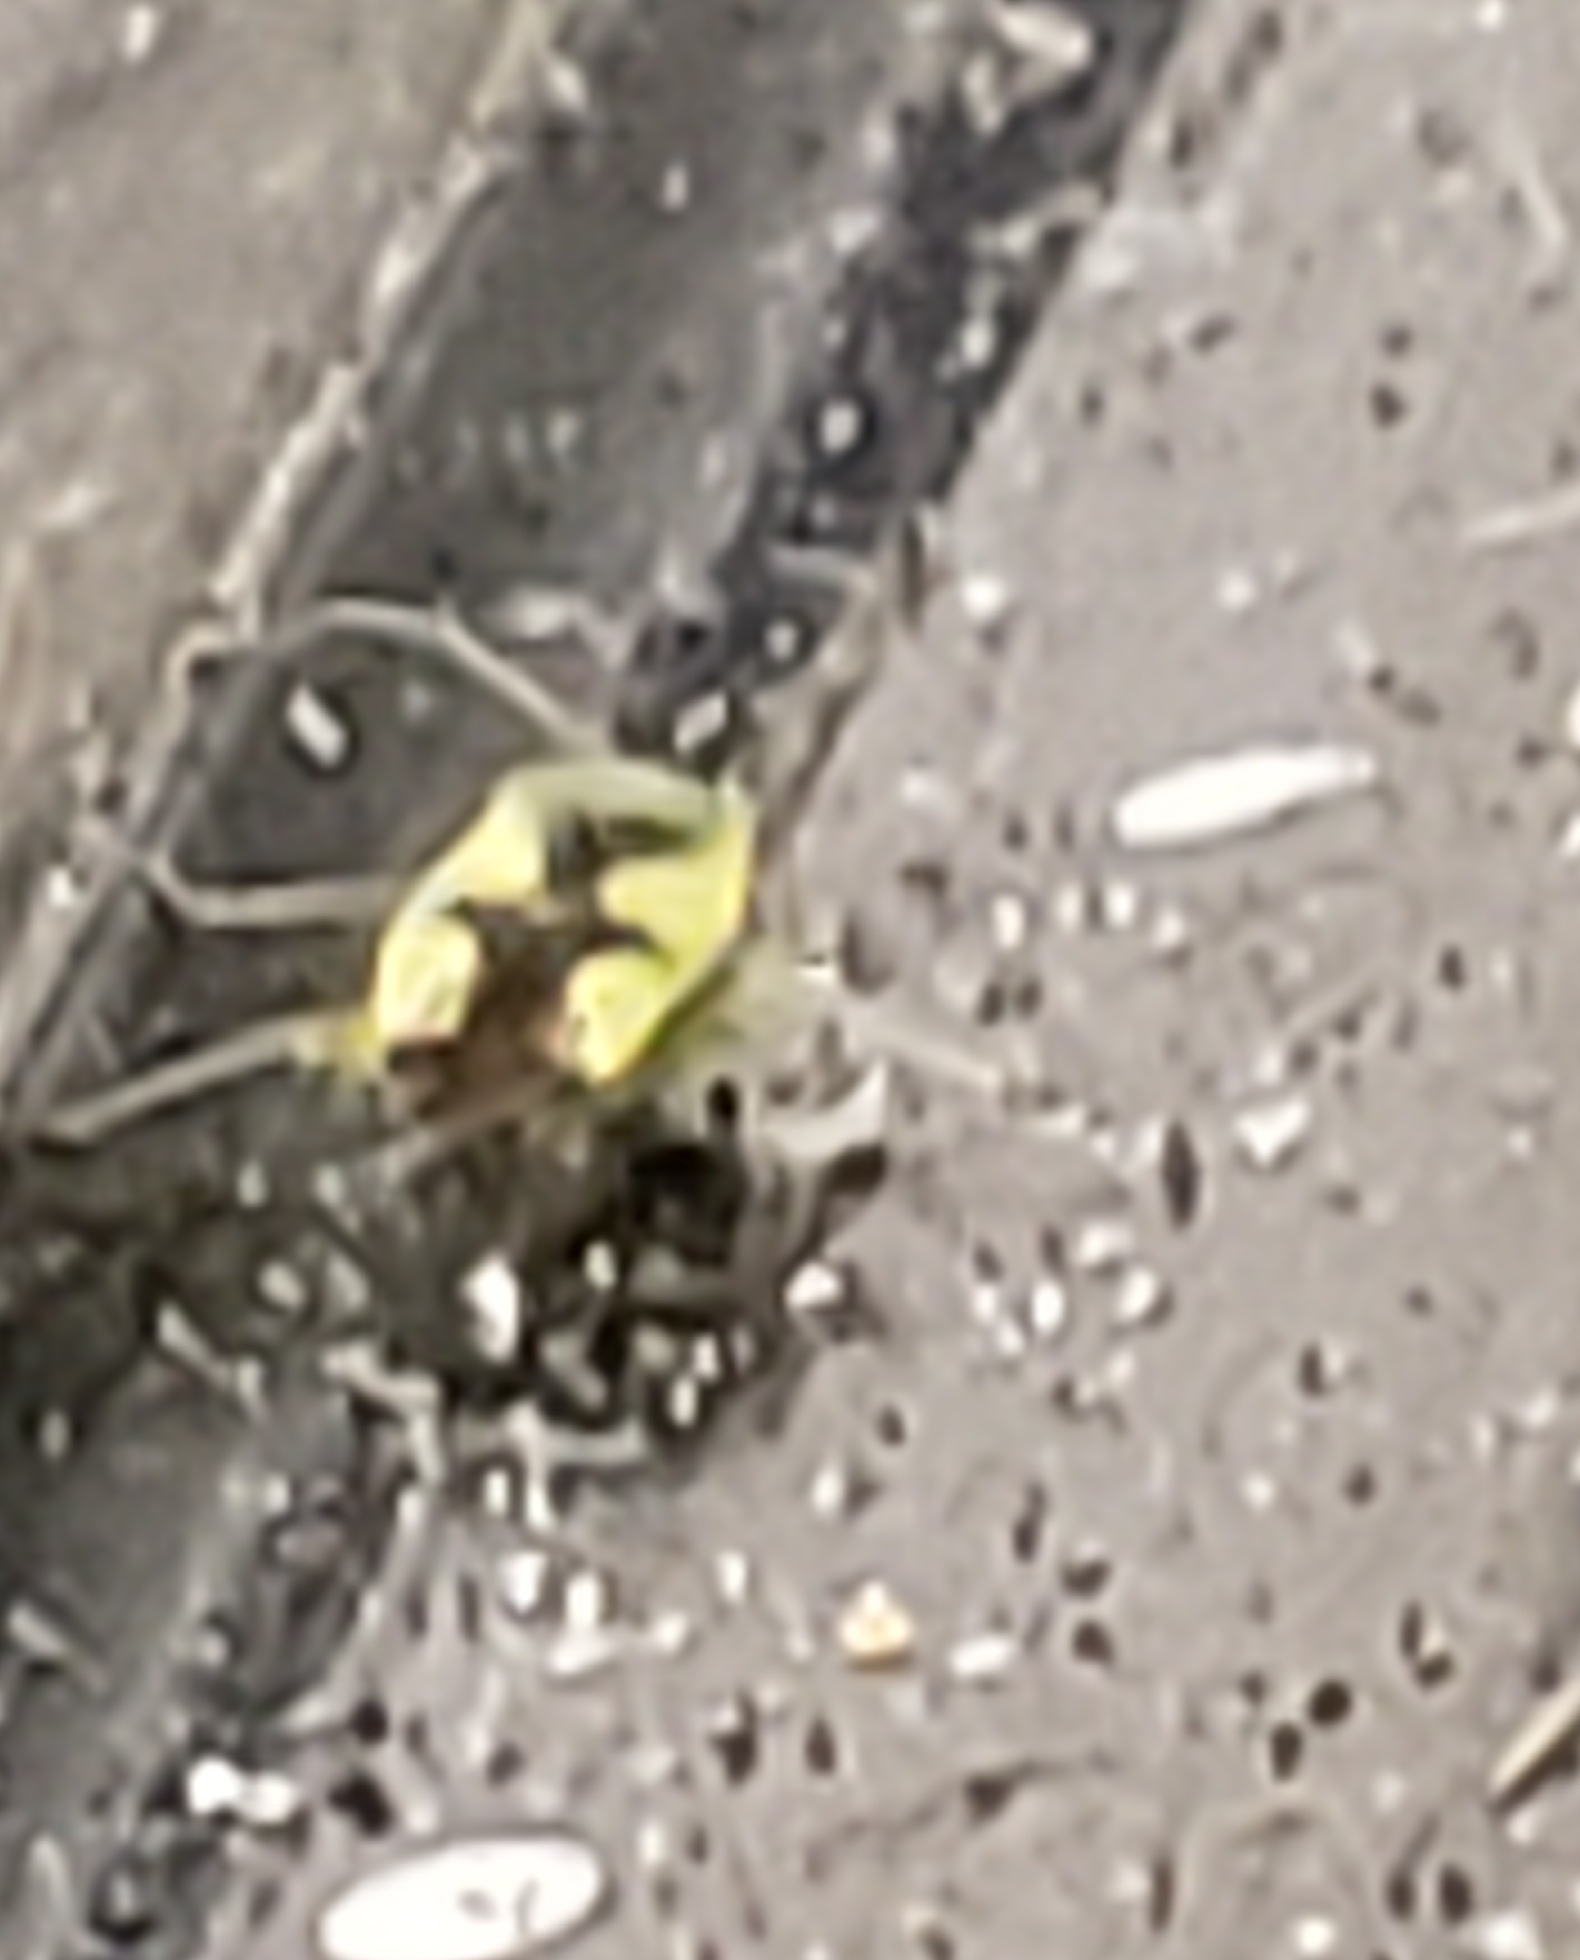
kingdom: Animalia
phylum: Arthropoda
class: Insecta
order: Hemiptera
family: Miridae
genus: Reuteroscopus
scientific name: Reuteroscopus ornatus
